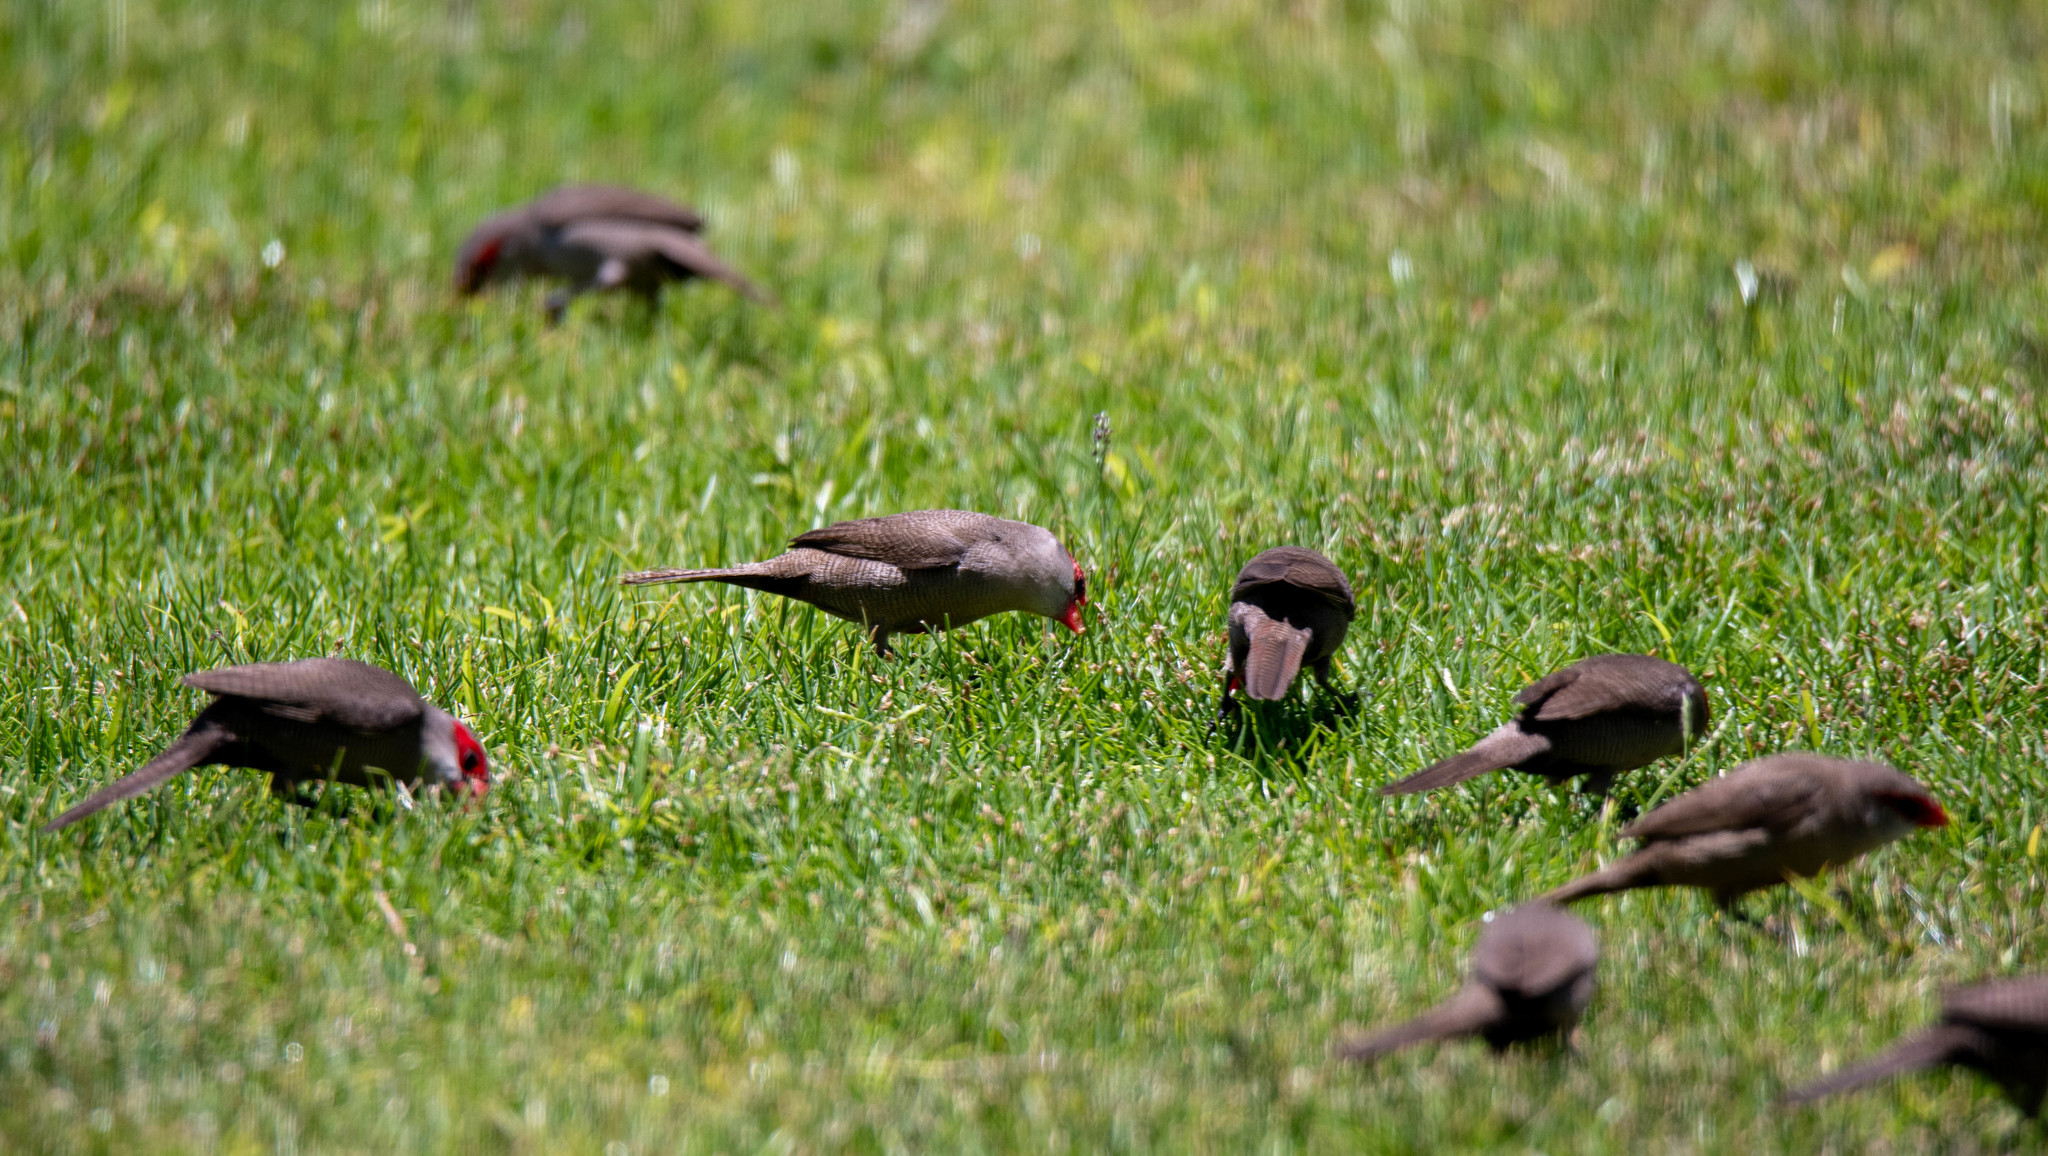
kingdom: Animalia
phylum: Chordata
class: Aves
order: Passeriformes
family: Estrildidae
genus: Estrilda
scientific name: Estrilda astrild
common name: Common waxbill
